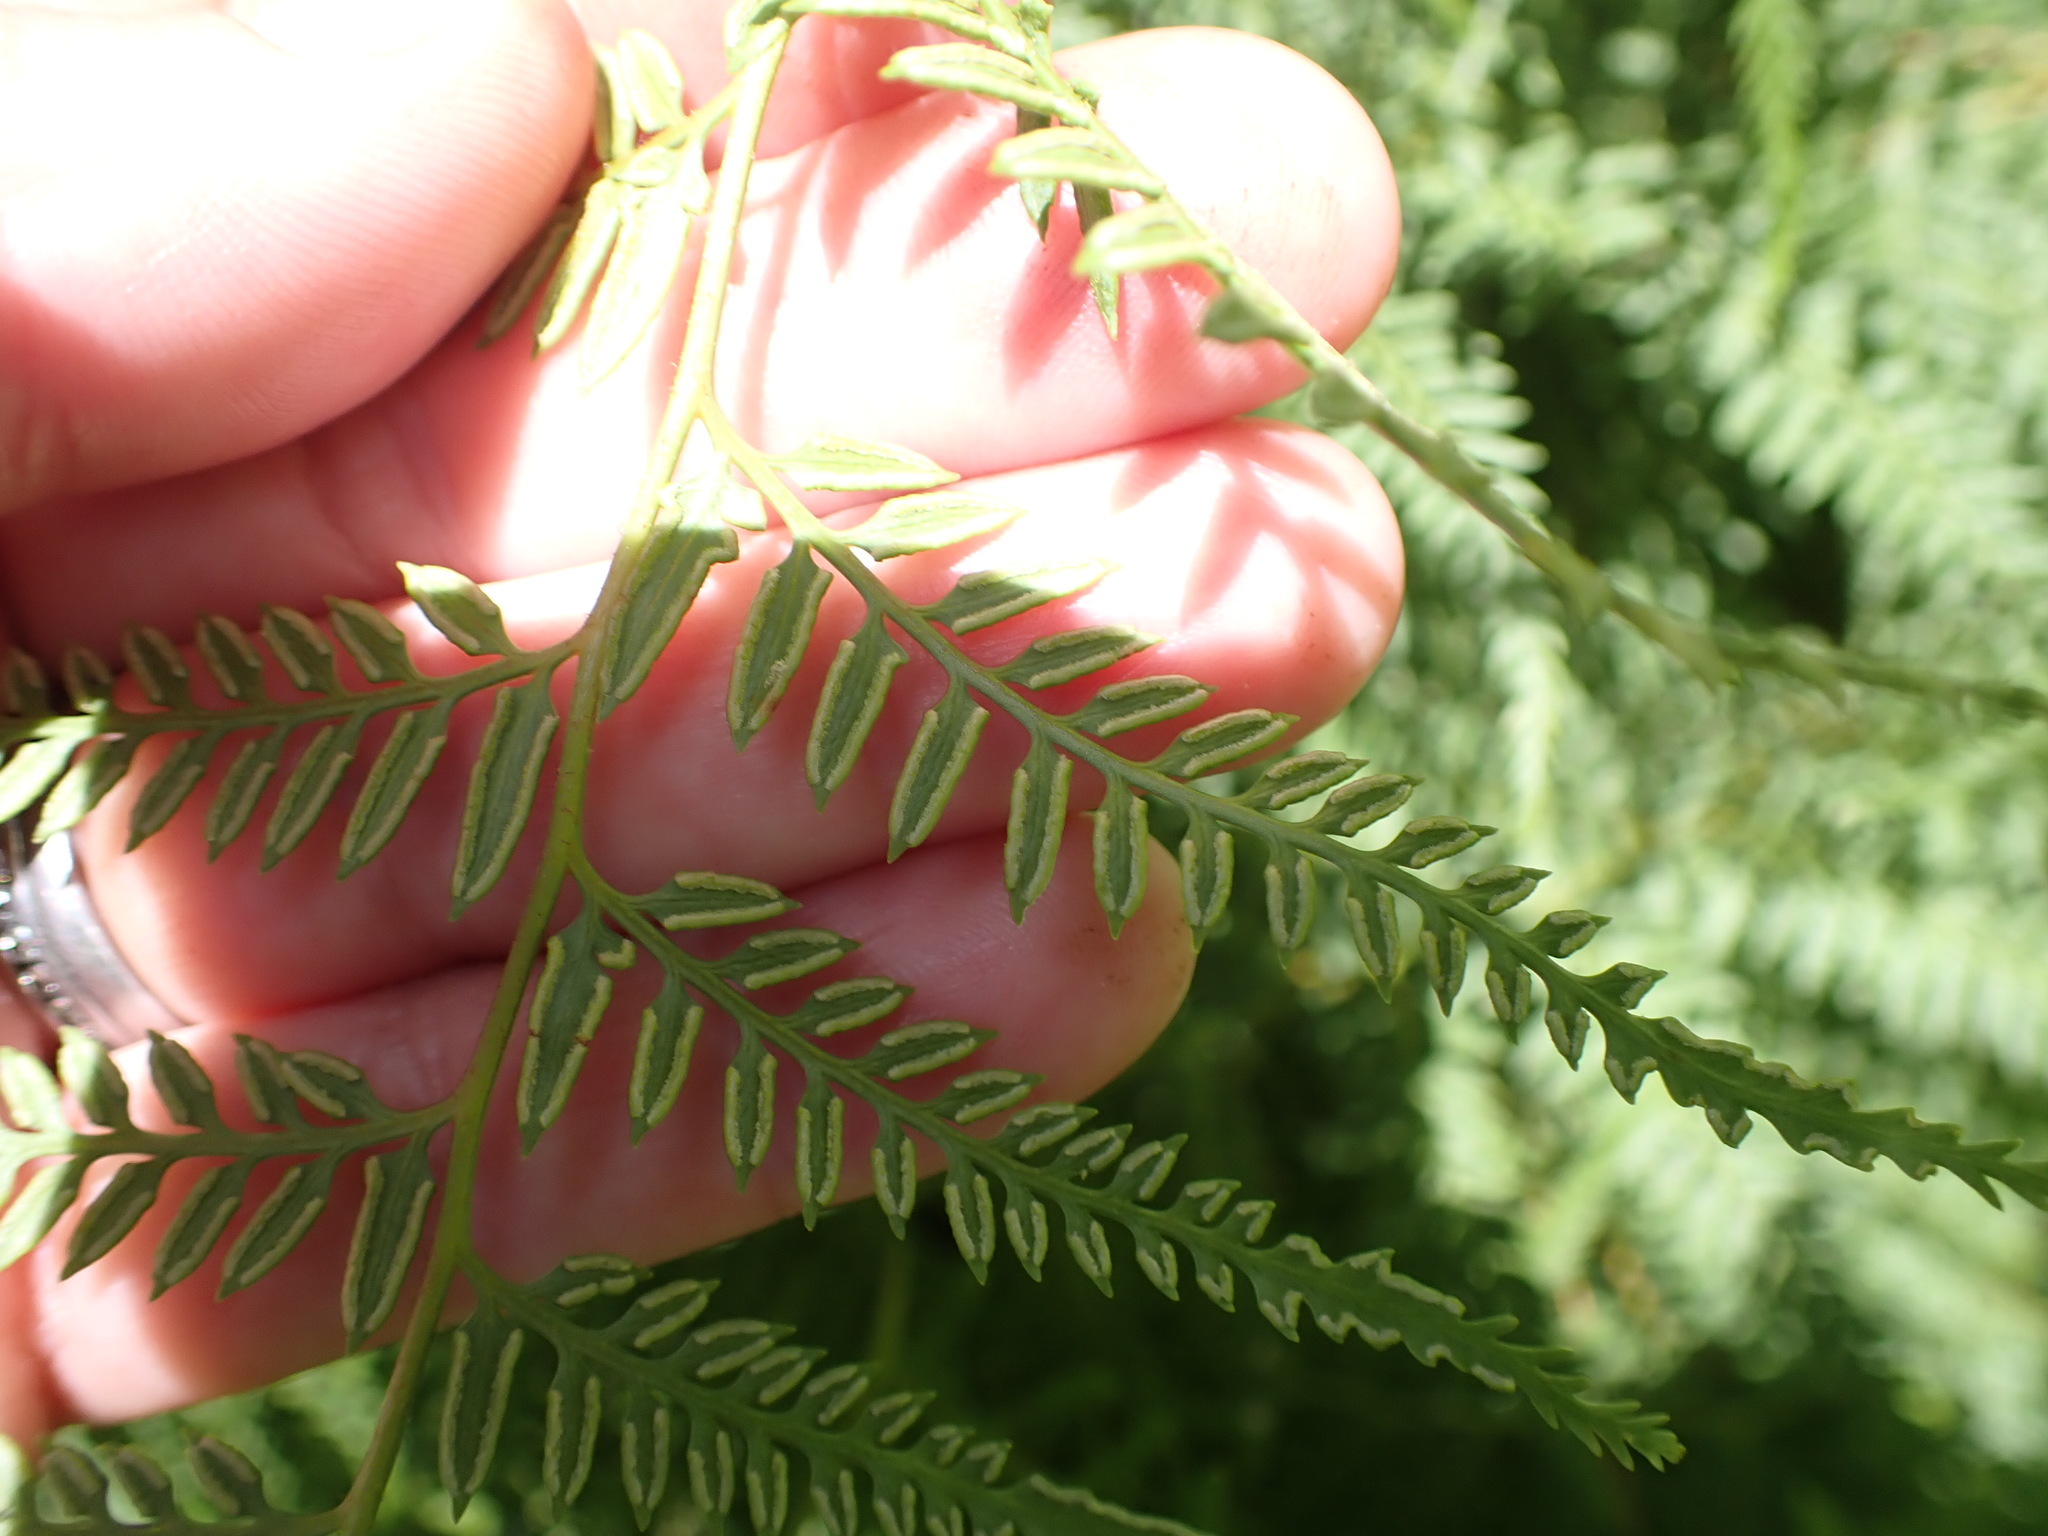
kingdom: Plantae
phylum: Tracheophyta
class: Polypodiopsida
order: Polypodiales
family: Dennstaedtiaceae
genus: Paesia
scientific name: Paesia scaberula
